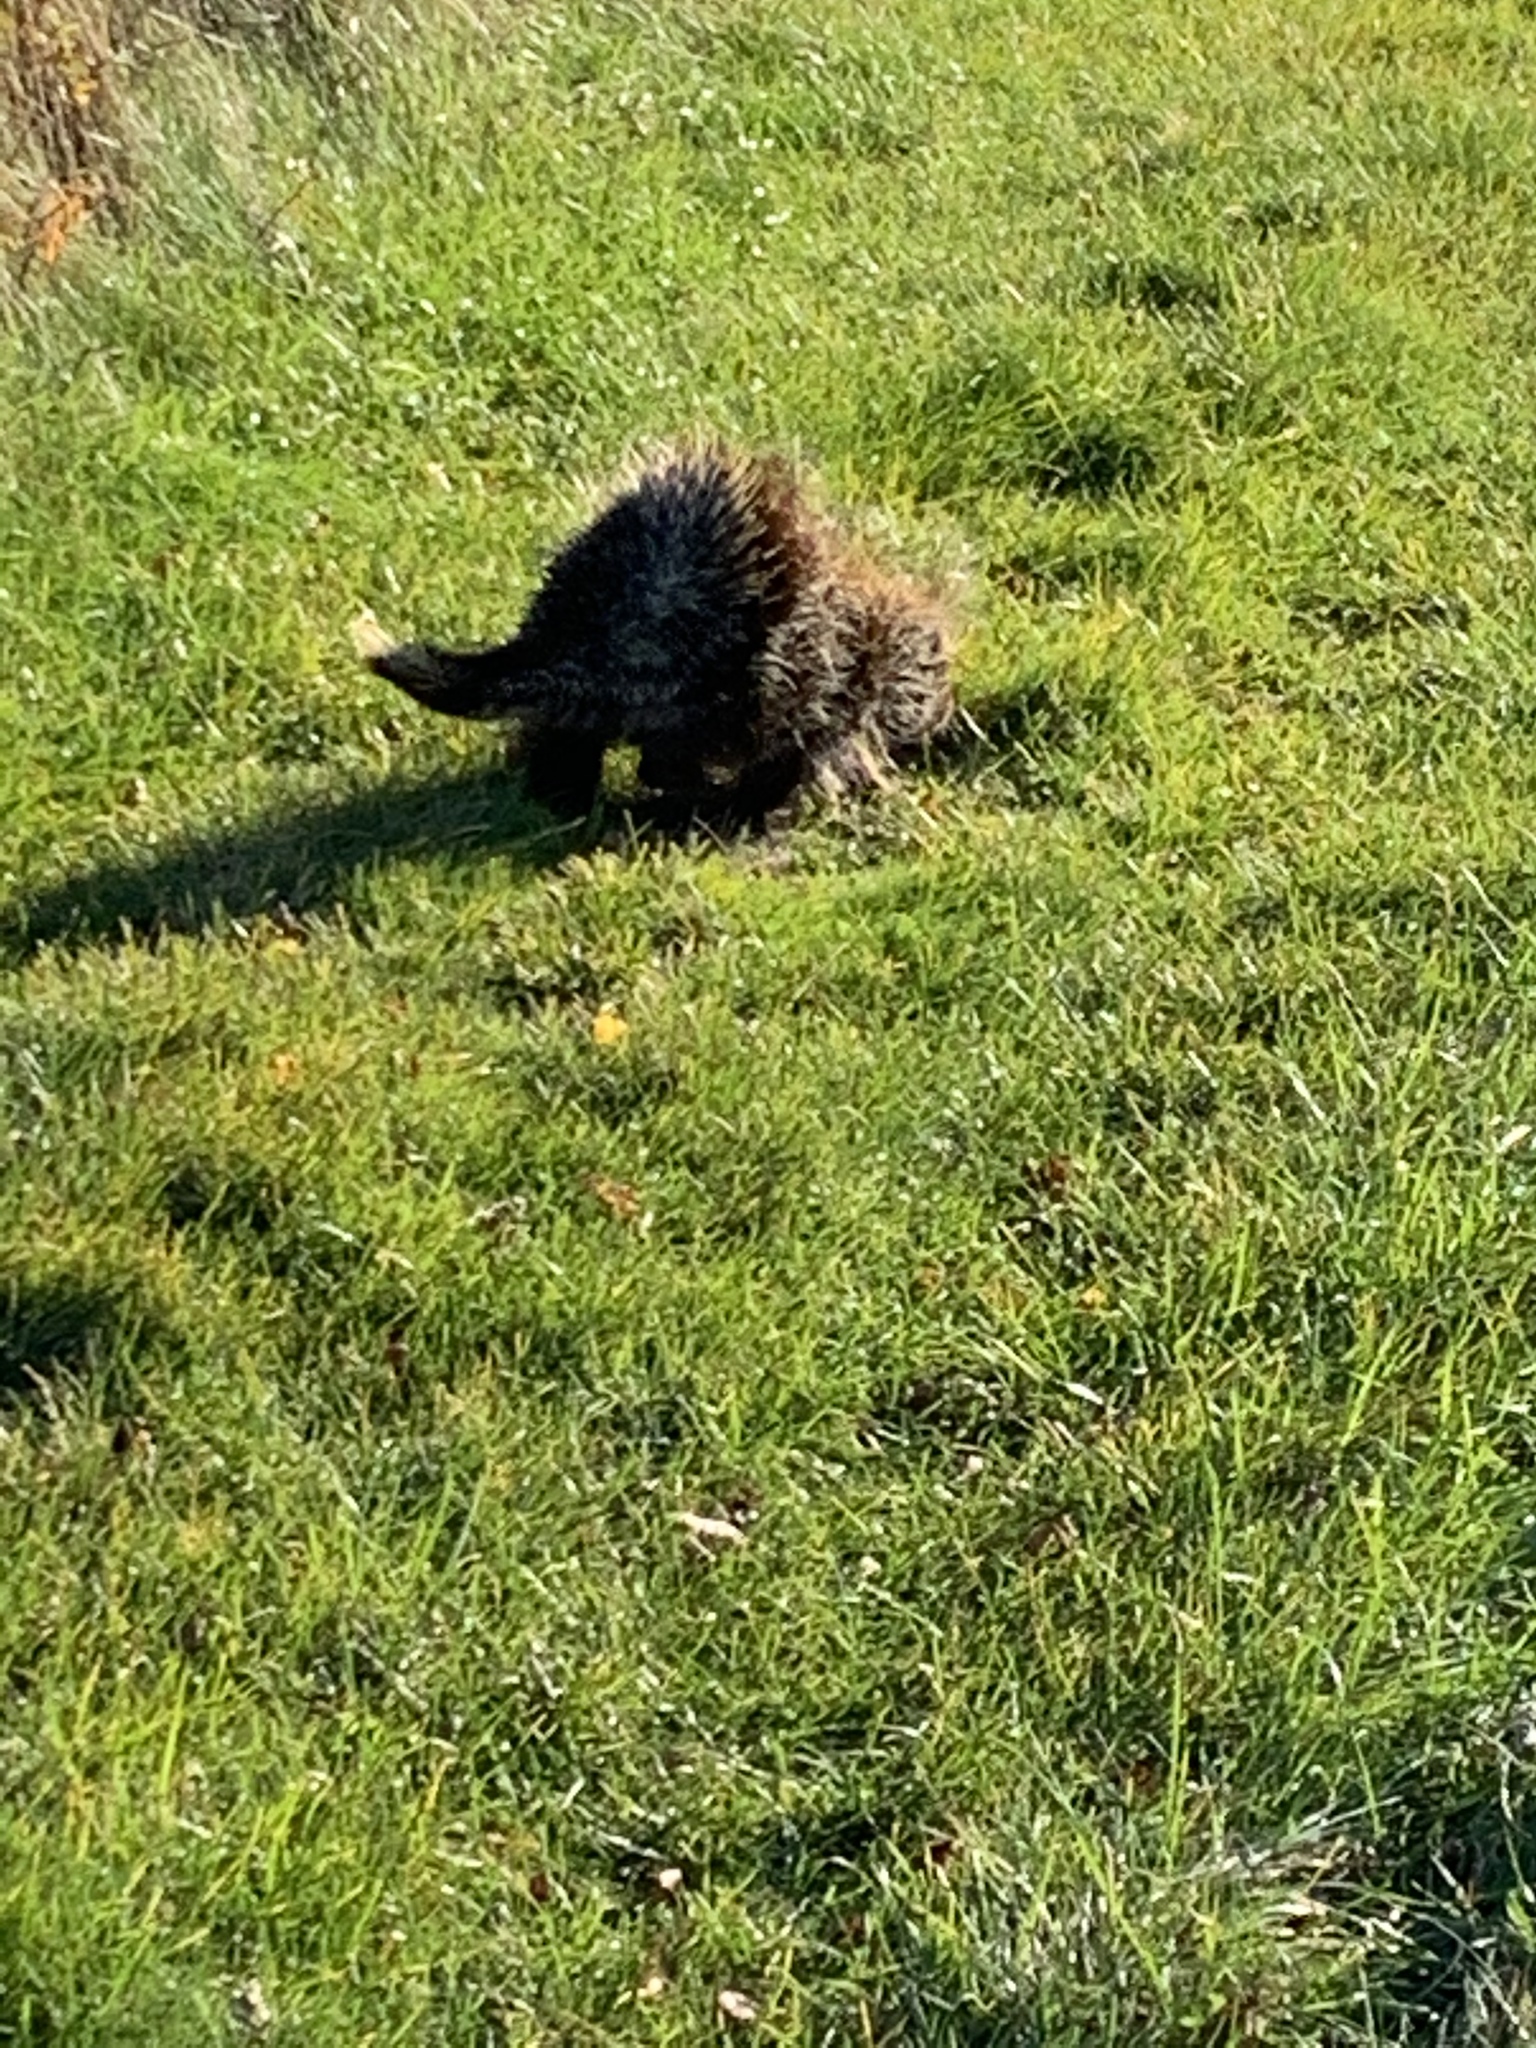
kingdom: Animalia
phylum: Chordata
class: Mammalia
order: Rodentia
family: Erethizontidae
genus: Erethizon
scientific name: Erethizon dorsatus
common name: North american porcupine
